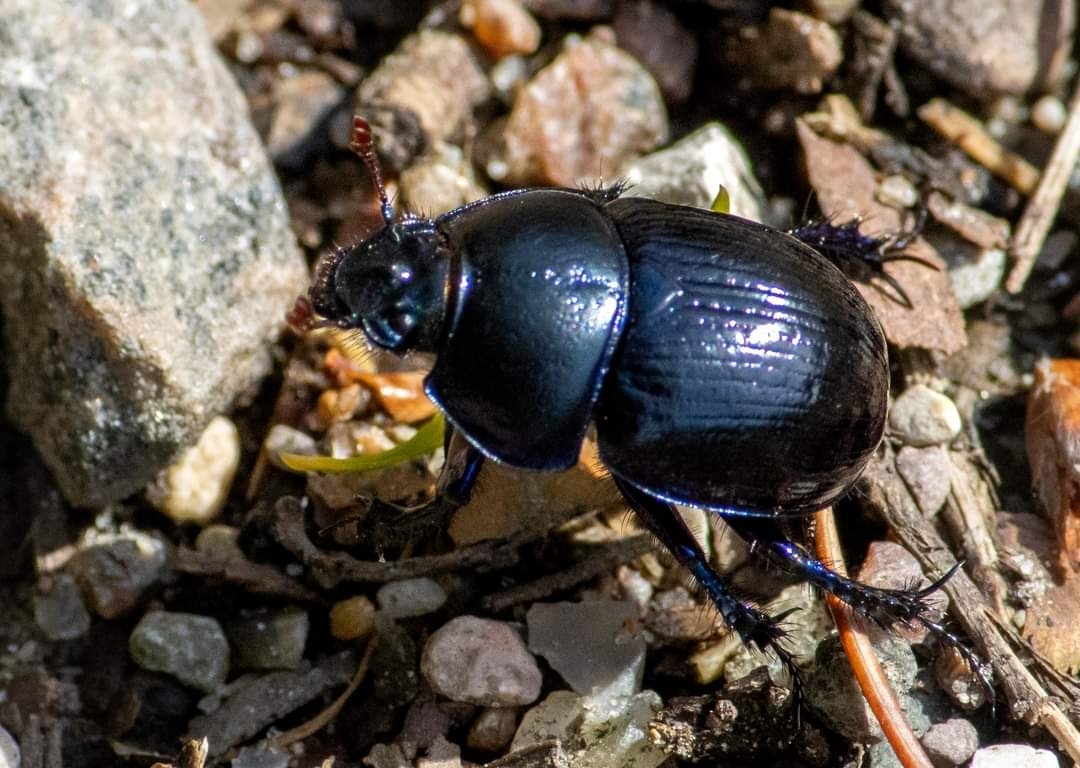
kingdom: Animalia
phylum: Arthropoda
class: Insecta
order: Coleoptera
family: Geotrupidae
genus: Anoplotrupes
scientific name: Anoplotrupes stercorosus
